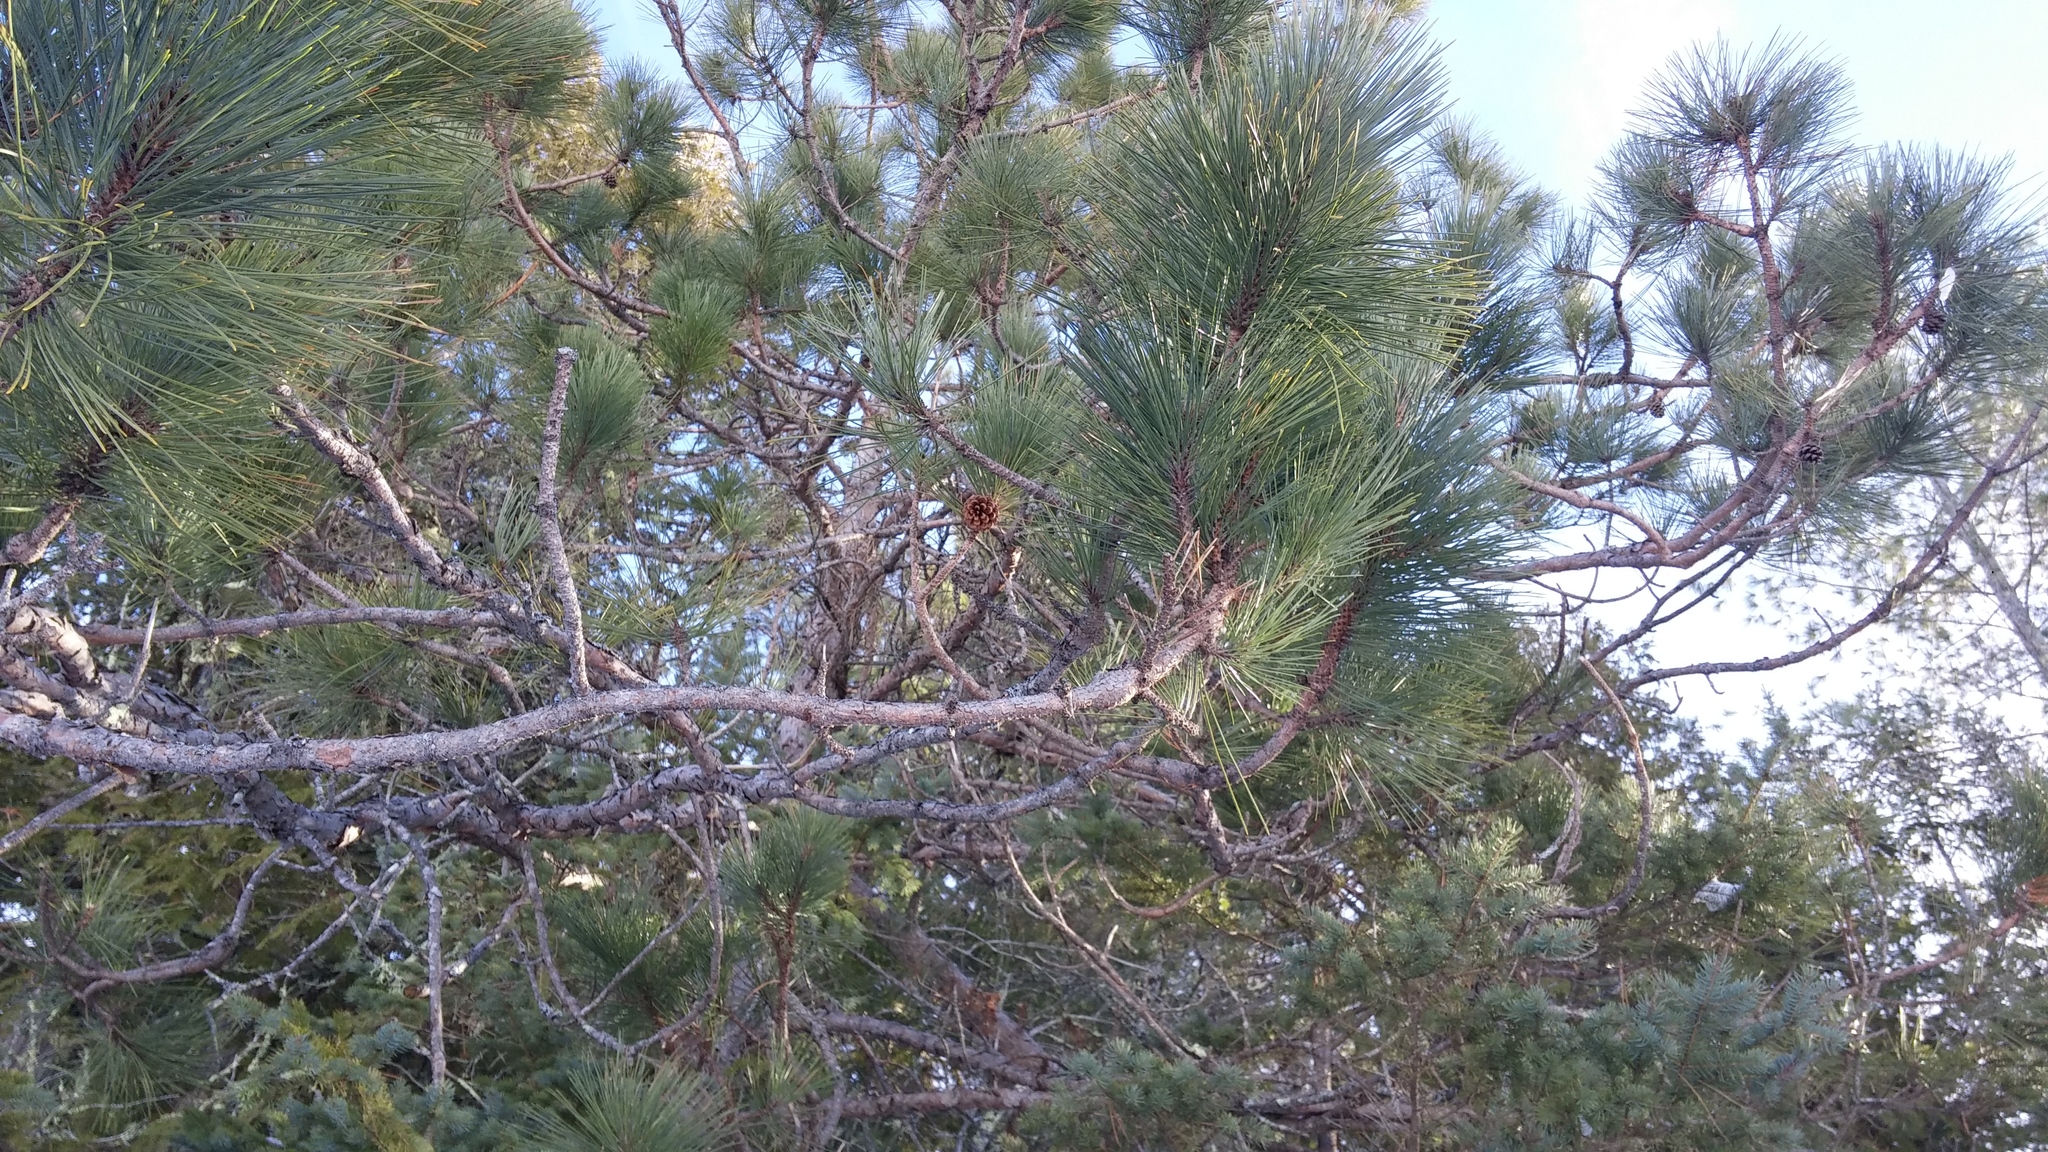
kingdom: Plantae
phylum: Tracheophyta
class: Pinopsida
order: Pinales
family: Pinaceae
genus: Pinus
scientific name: Pinus resinosa
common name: Norway pine
